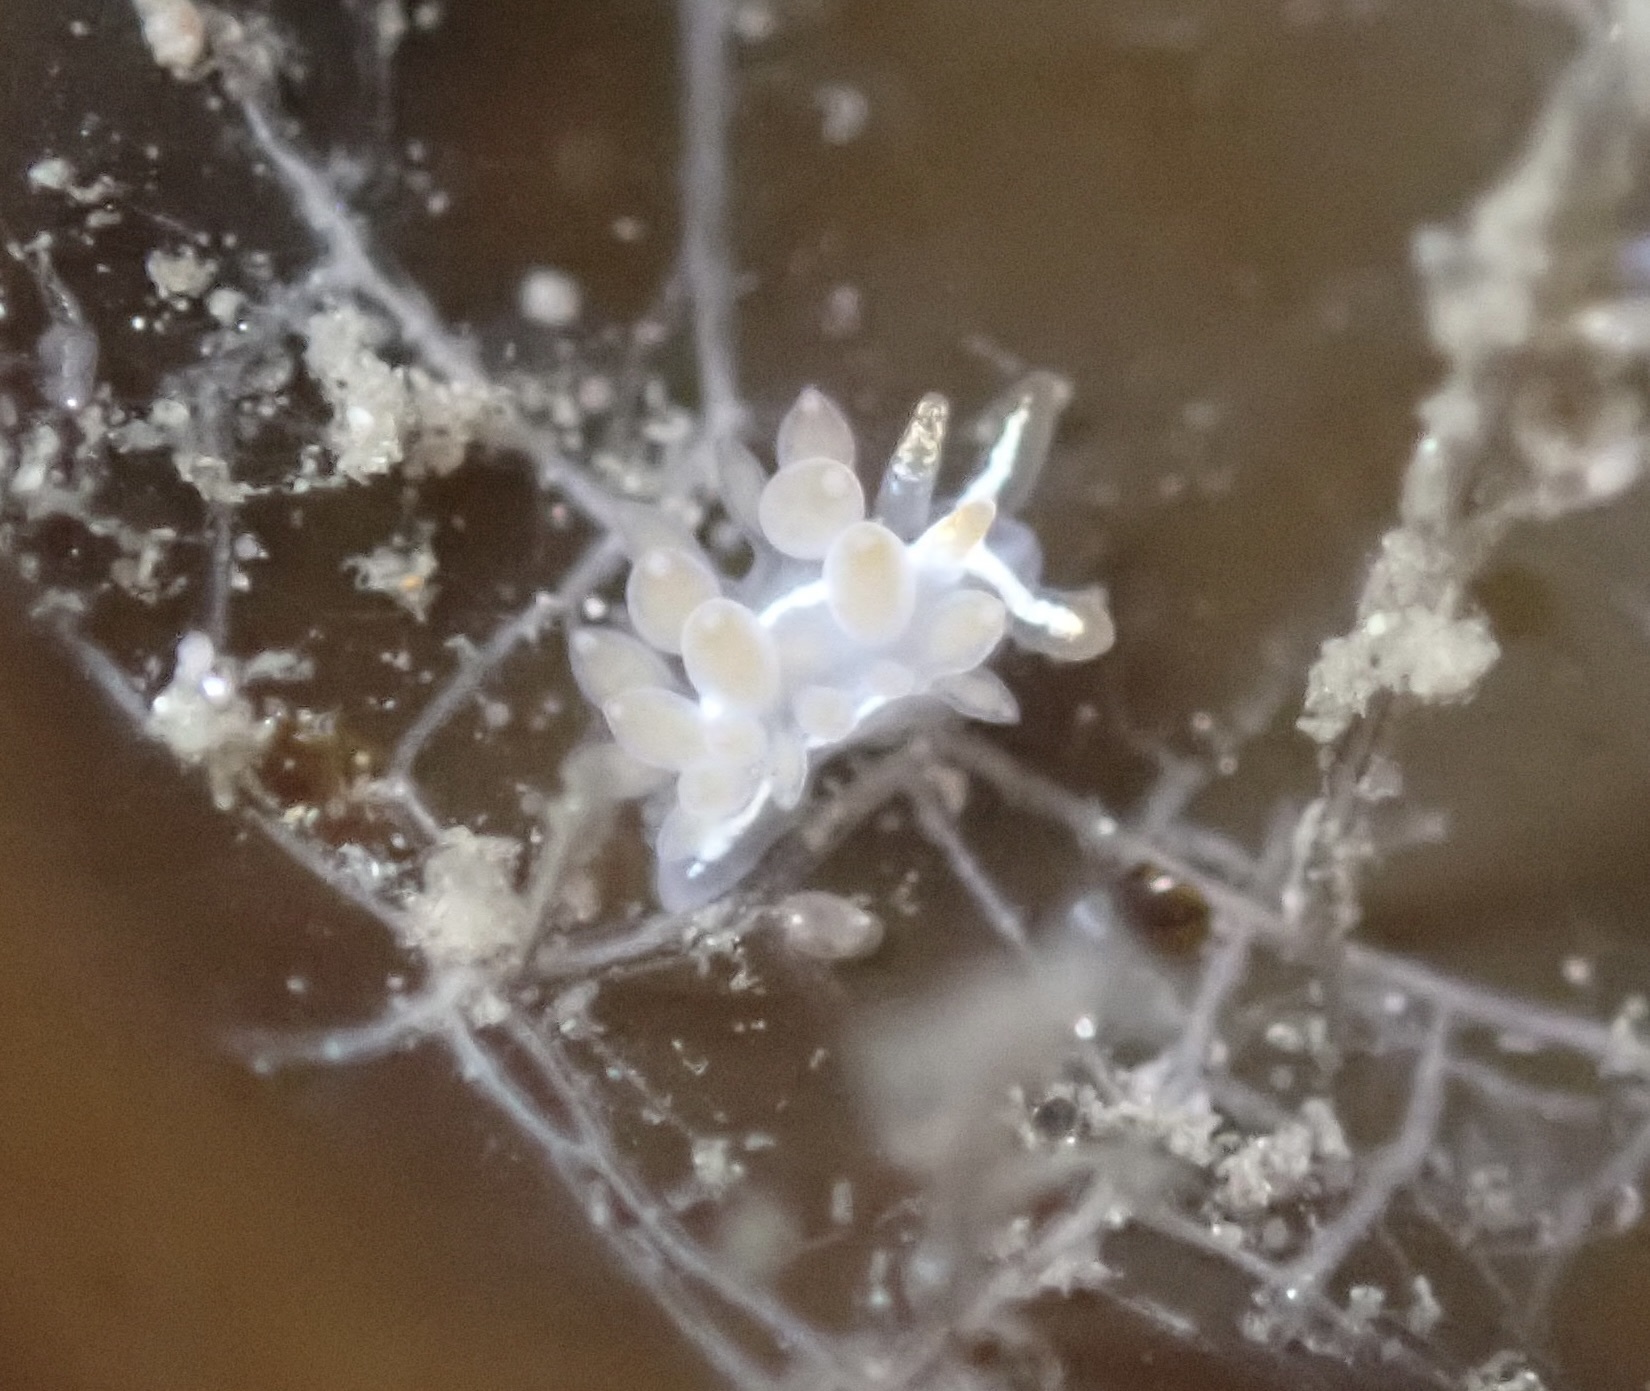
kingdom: Animalia
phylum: Mollusca
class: Gastropoda
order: Nudibranchia
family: Coryphellidae
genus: Coryphella
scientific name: Coryphella trilineata
